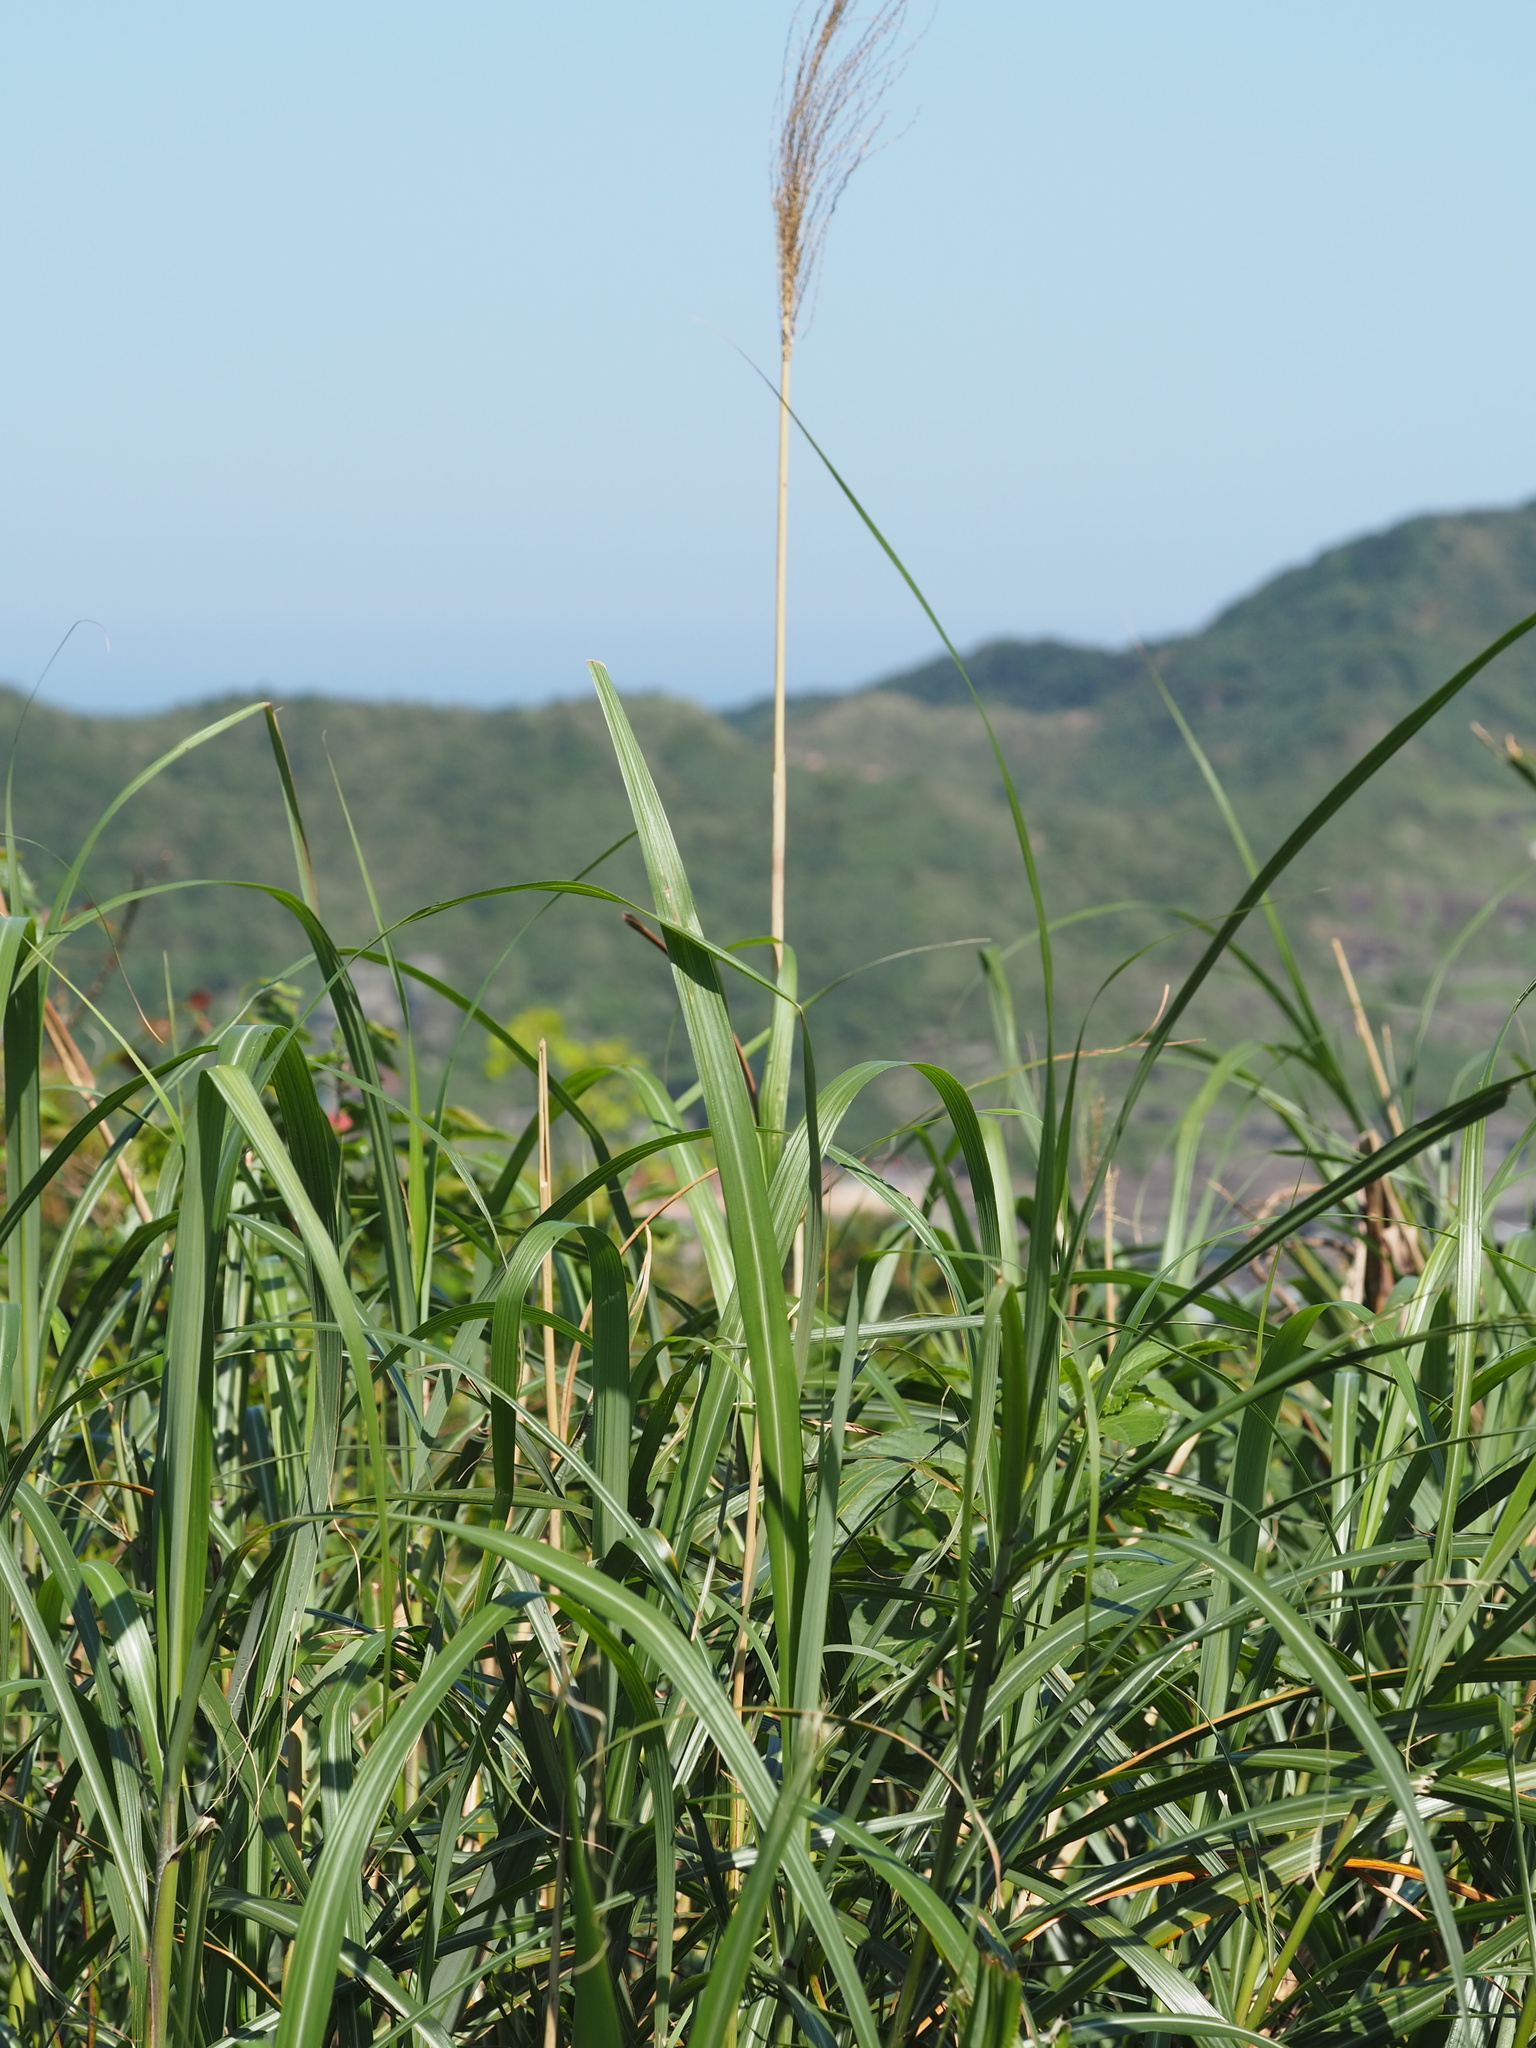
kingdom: Plantae
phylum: Tracheophyta
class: Liliopsida
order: Poales
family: Poaceae
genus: Miscanthus
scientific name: Miscanthus sinensis
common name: Chinese silvergrass
